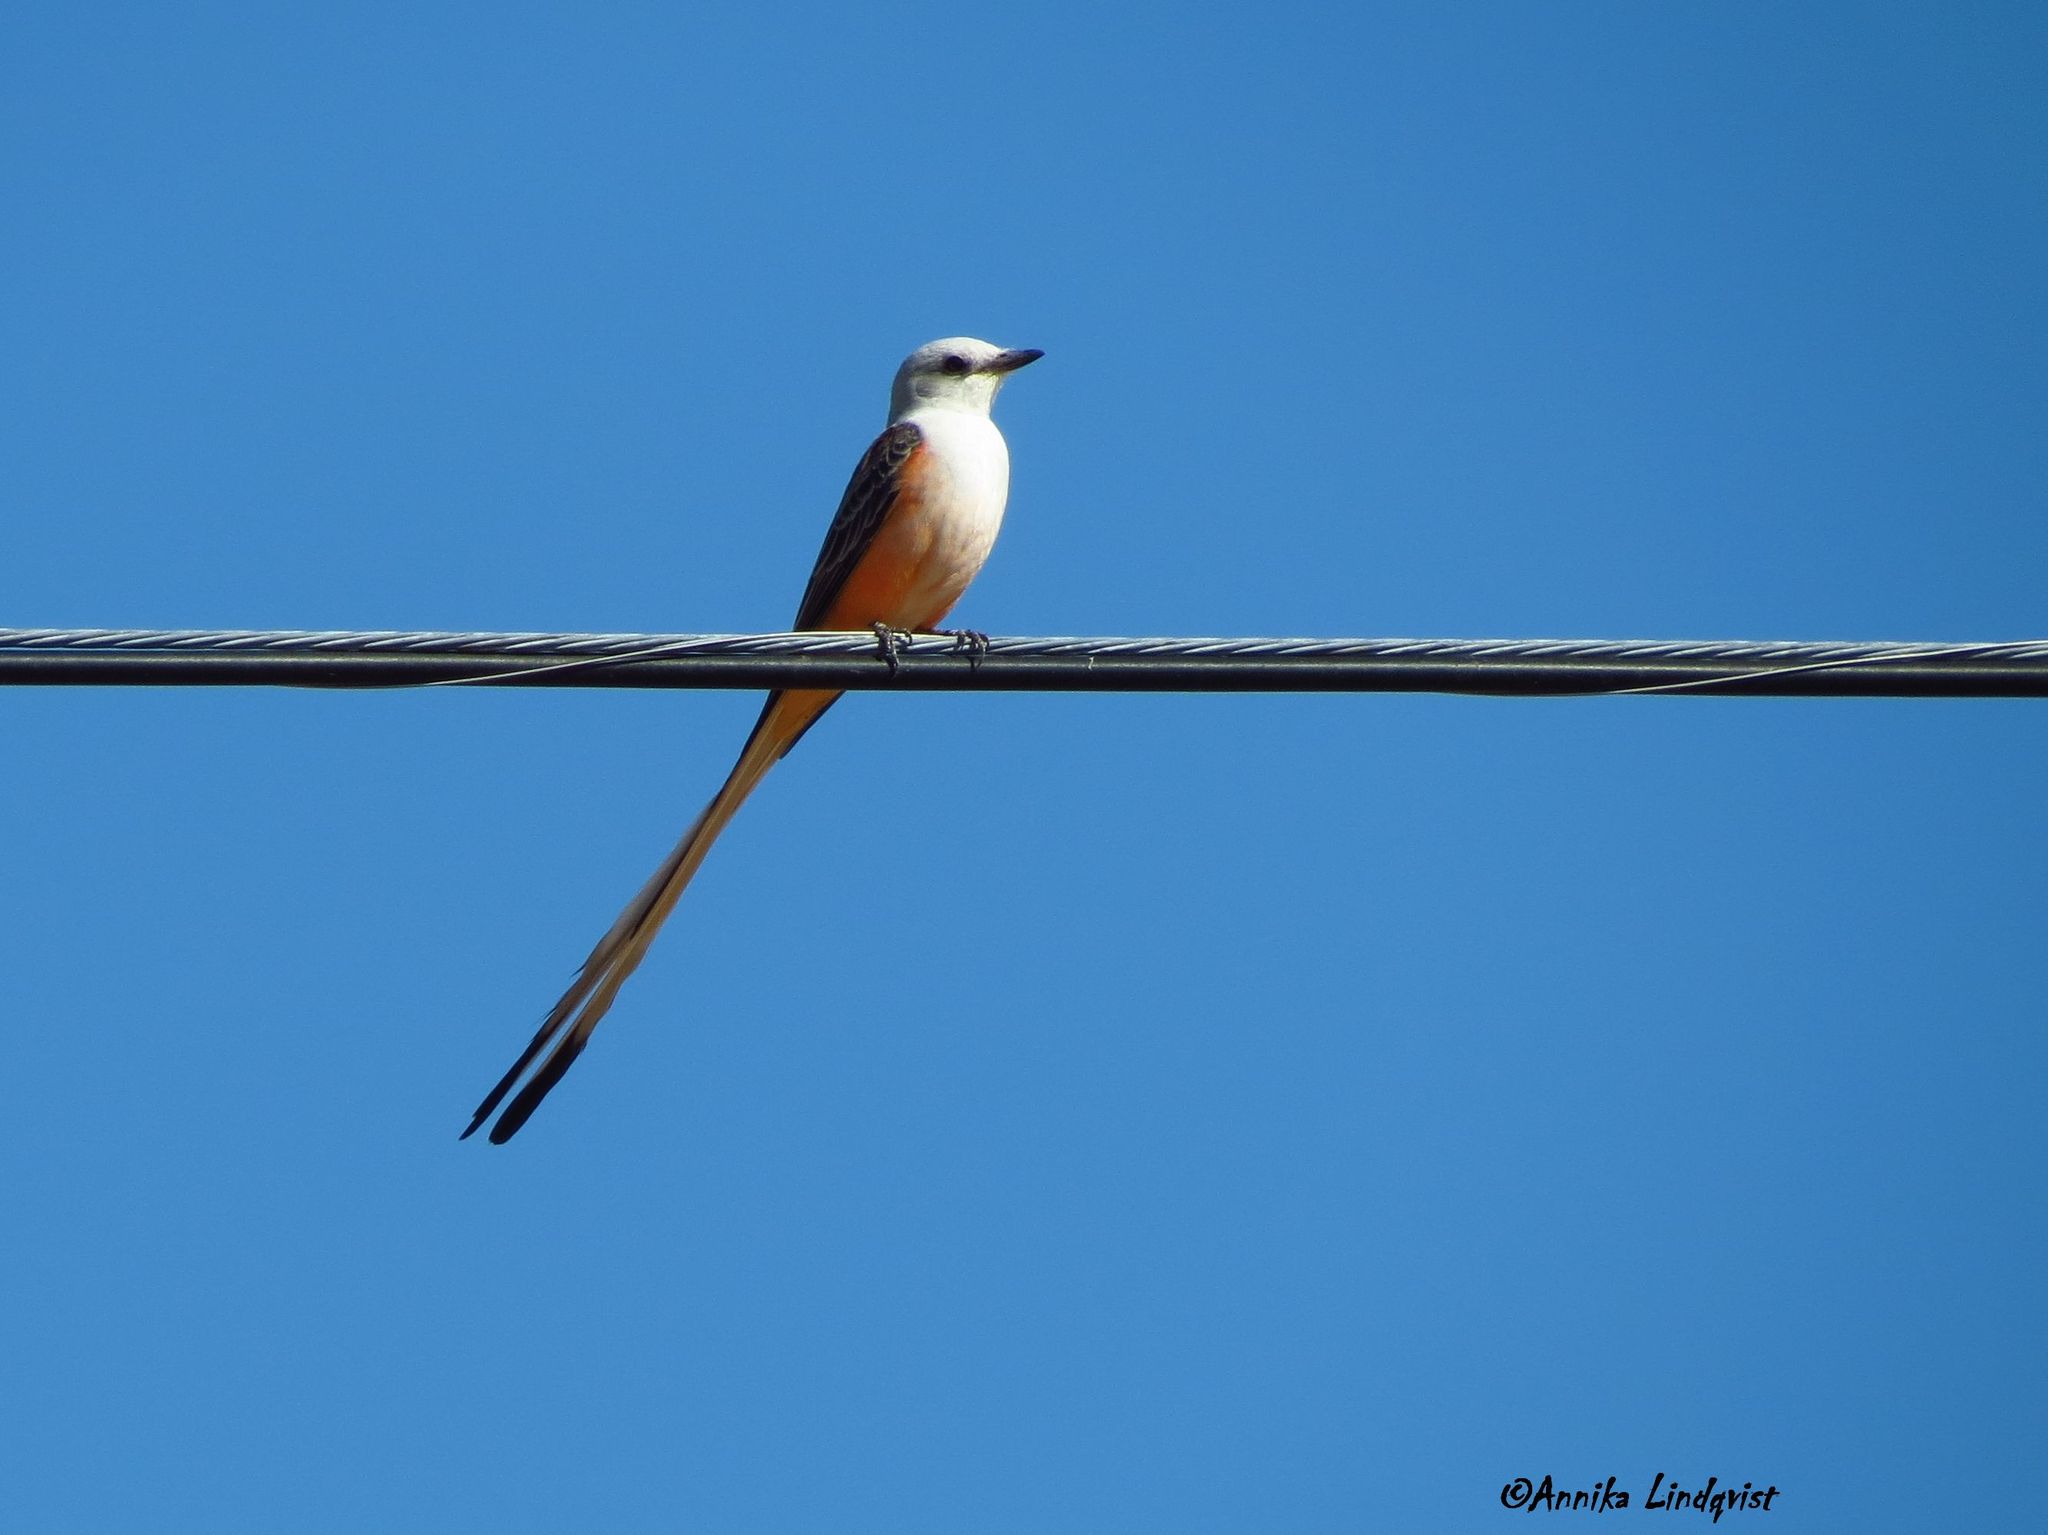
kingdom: Animalia
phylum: Chordata
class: Aves
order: Passeriformes
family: Tyrannidae
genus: Tyrannus
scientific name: Tyrannus forficatus
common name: Scissor-tailed flycatcher
